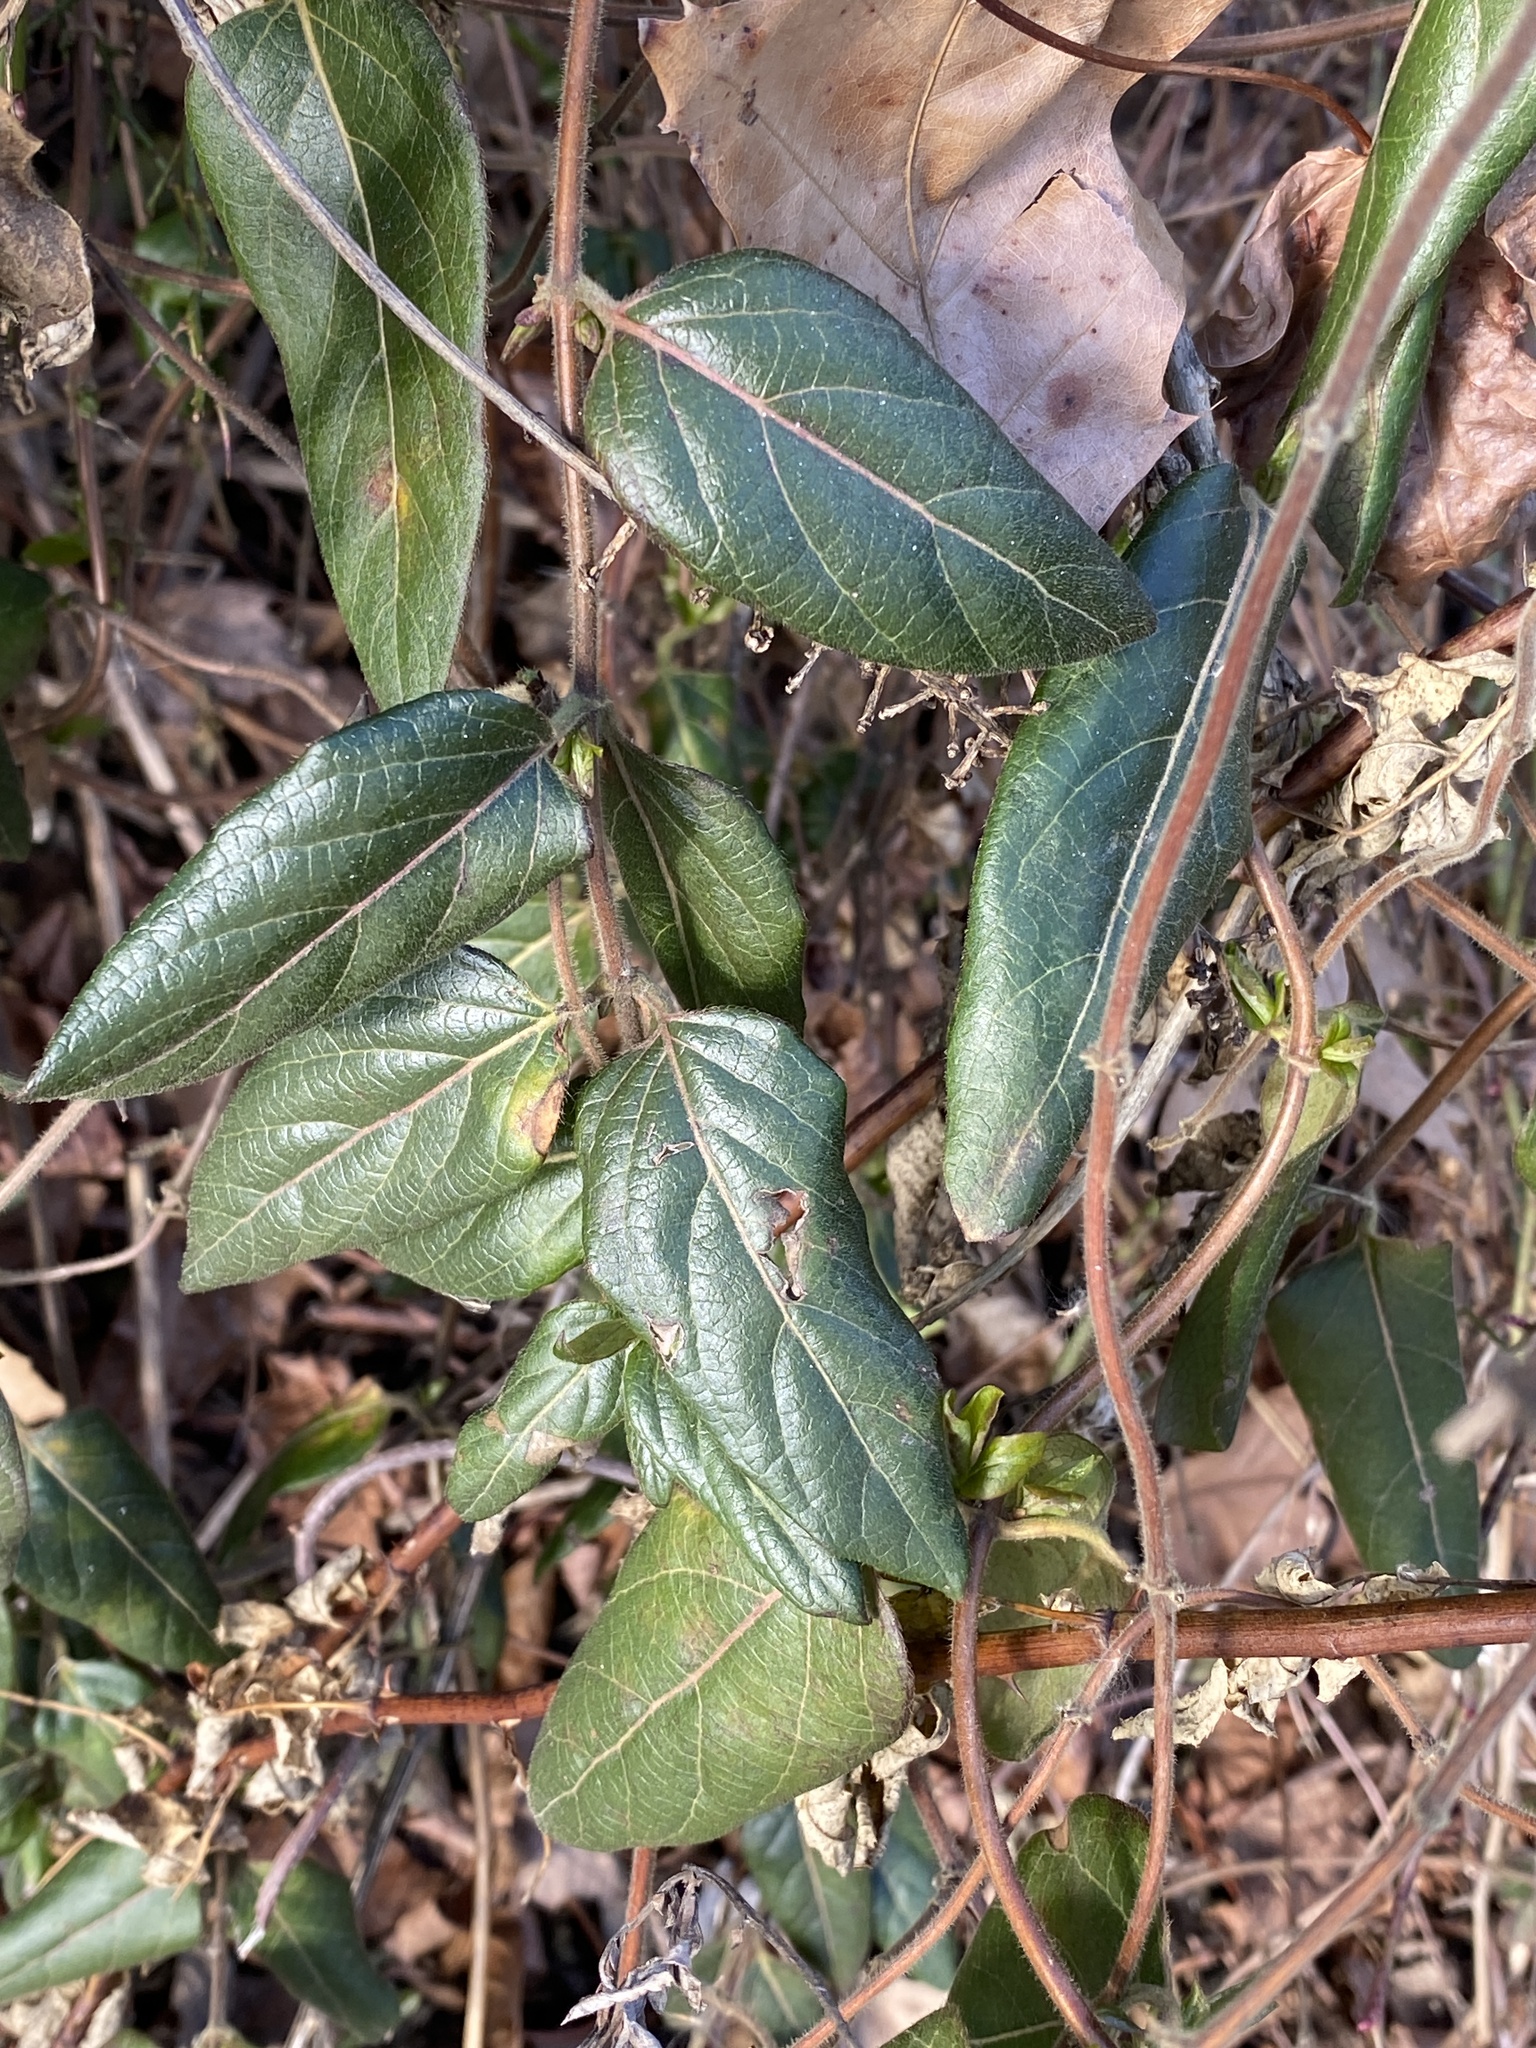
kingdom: Plantae
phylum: Tracheophyta
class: Magnoliopsida
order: Dipsacales
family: Caprifoliaceae
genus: Lonicera
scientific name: Lonicera japonica
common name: Japanese honeysuckle
